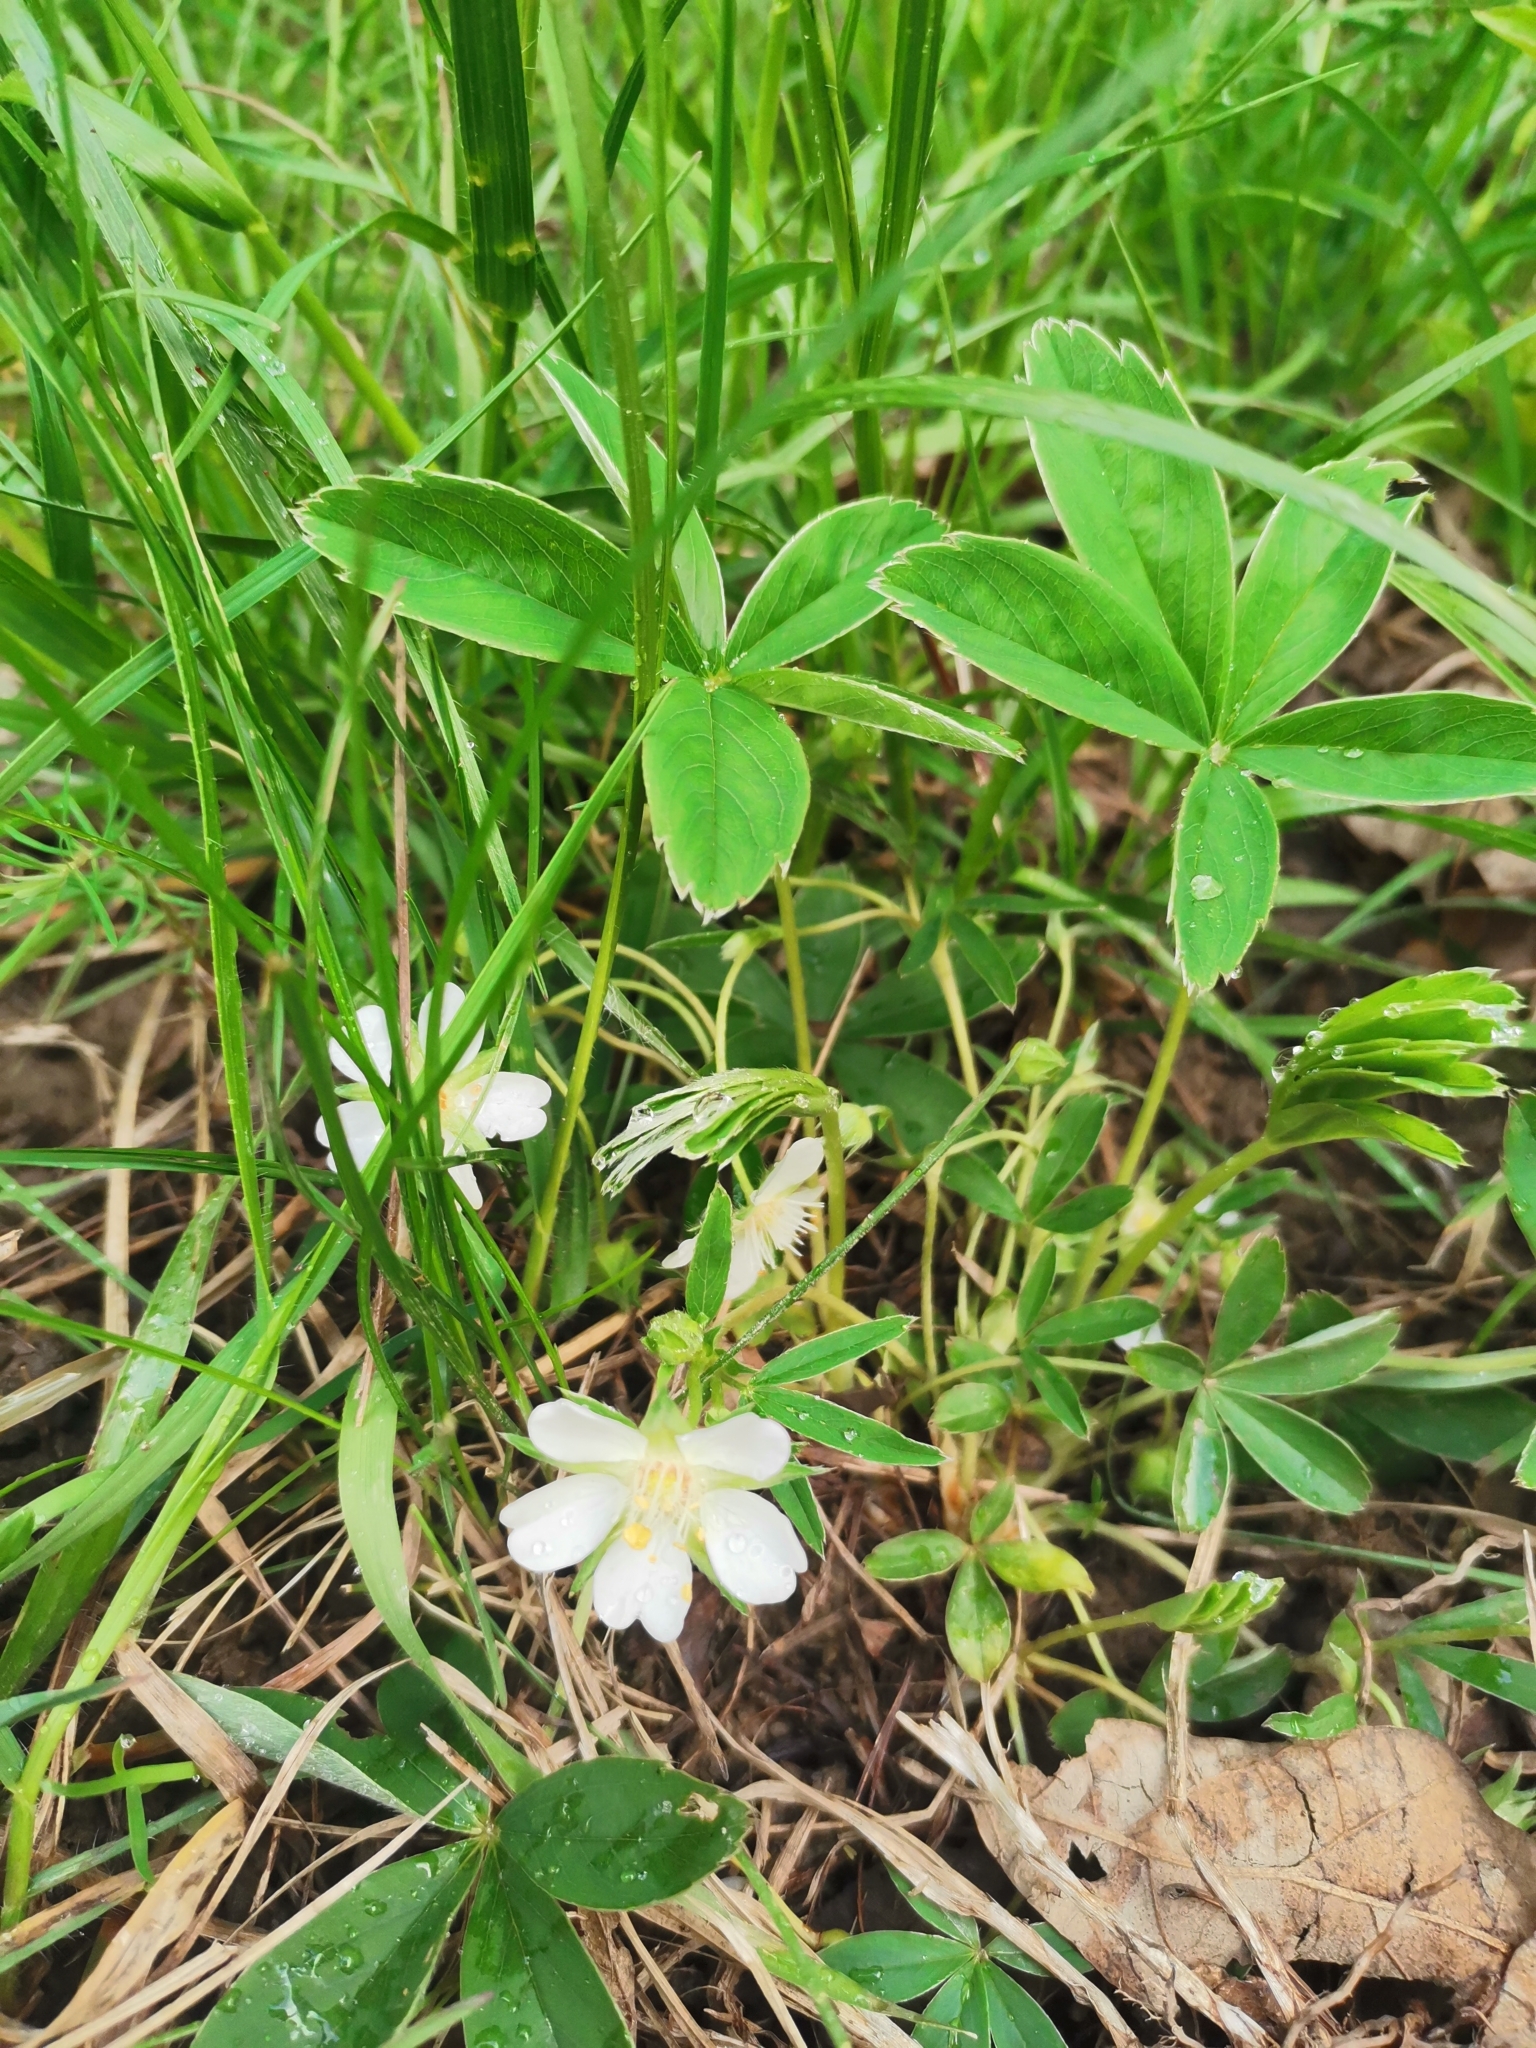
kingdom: Plantae
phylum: Tracheophyta
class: Magnoliopsida
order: Rosales
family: Rosaceae
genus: Potentilla
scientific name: Potentilla alba
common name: White cinquefoil
